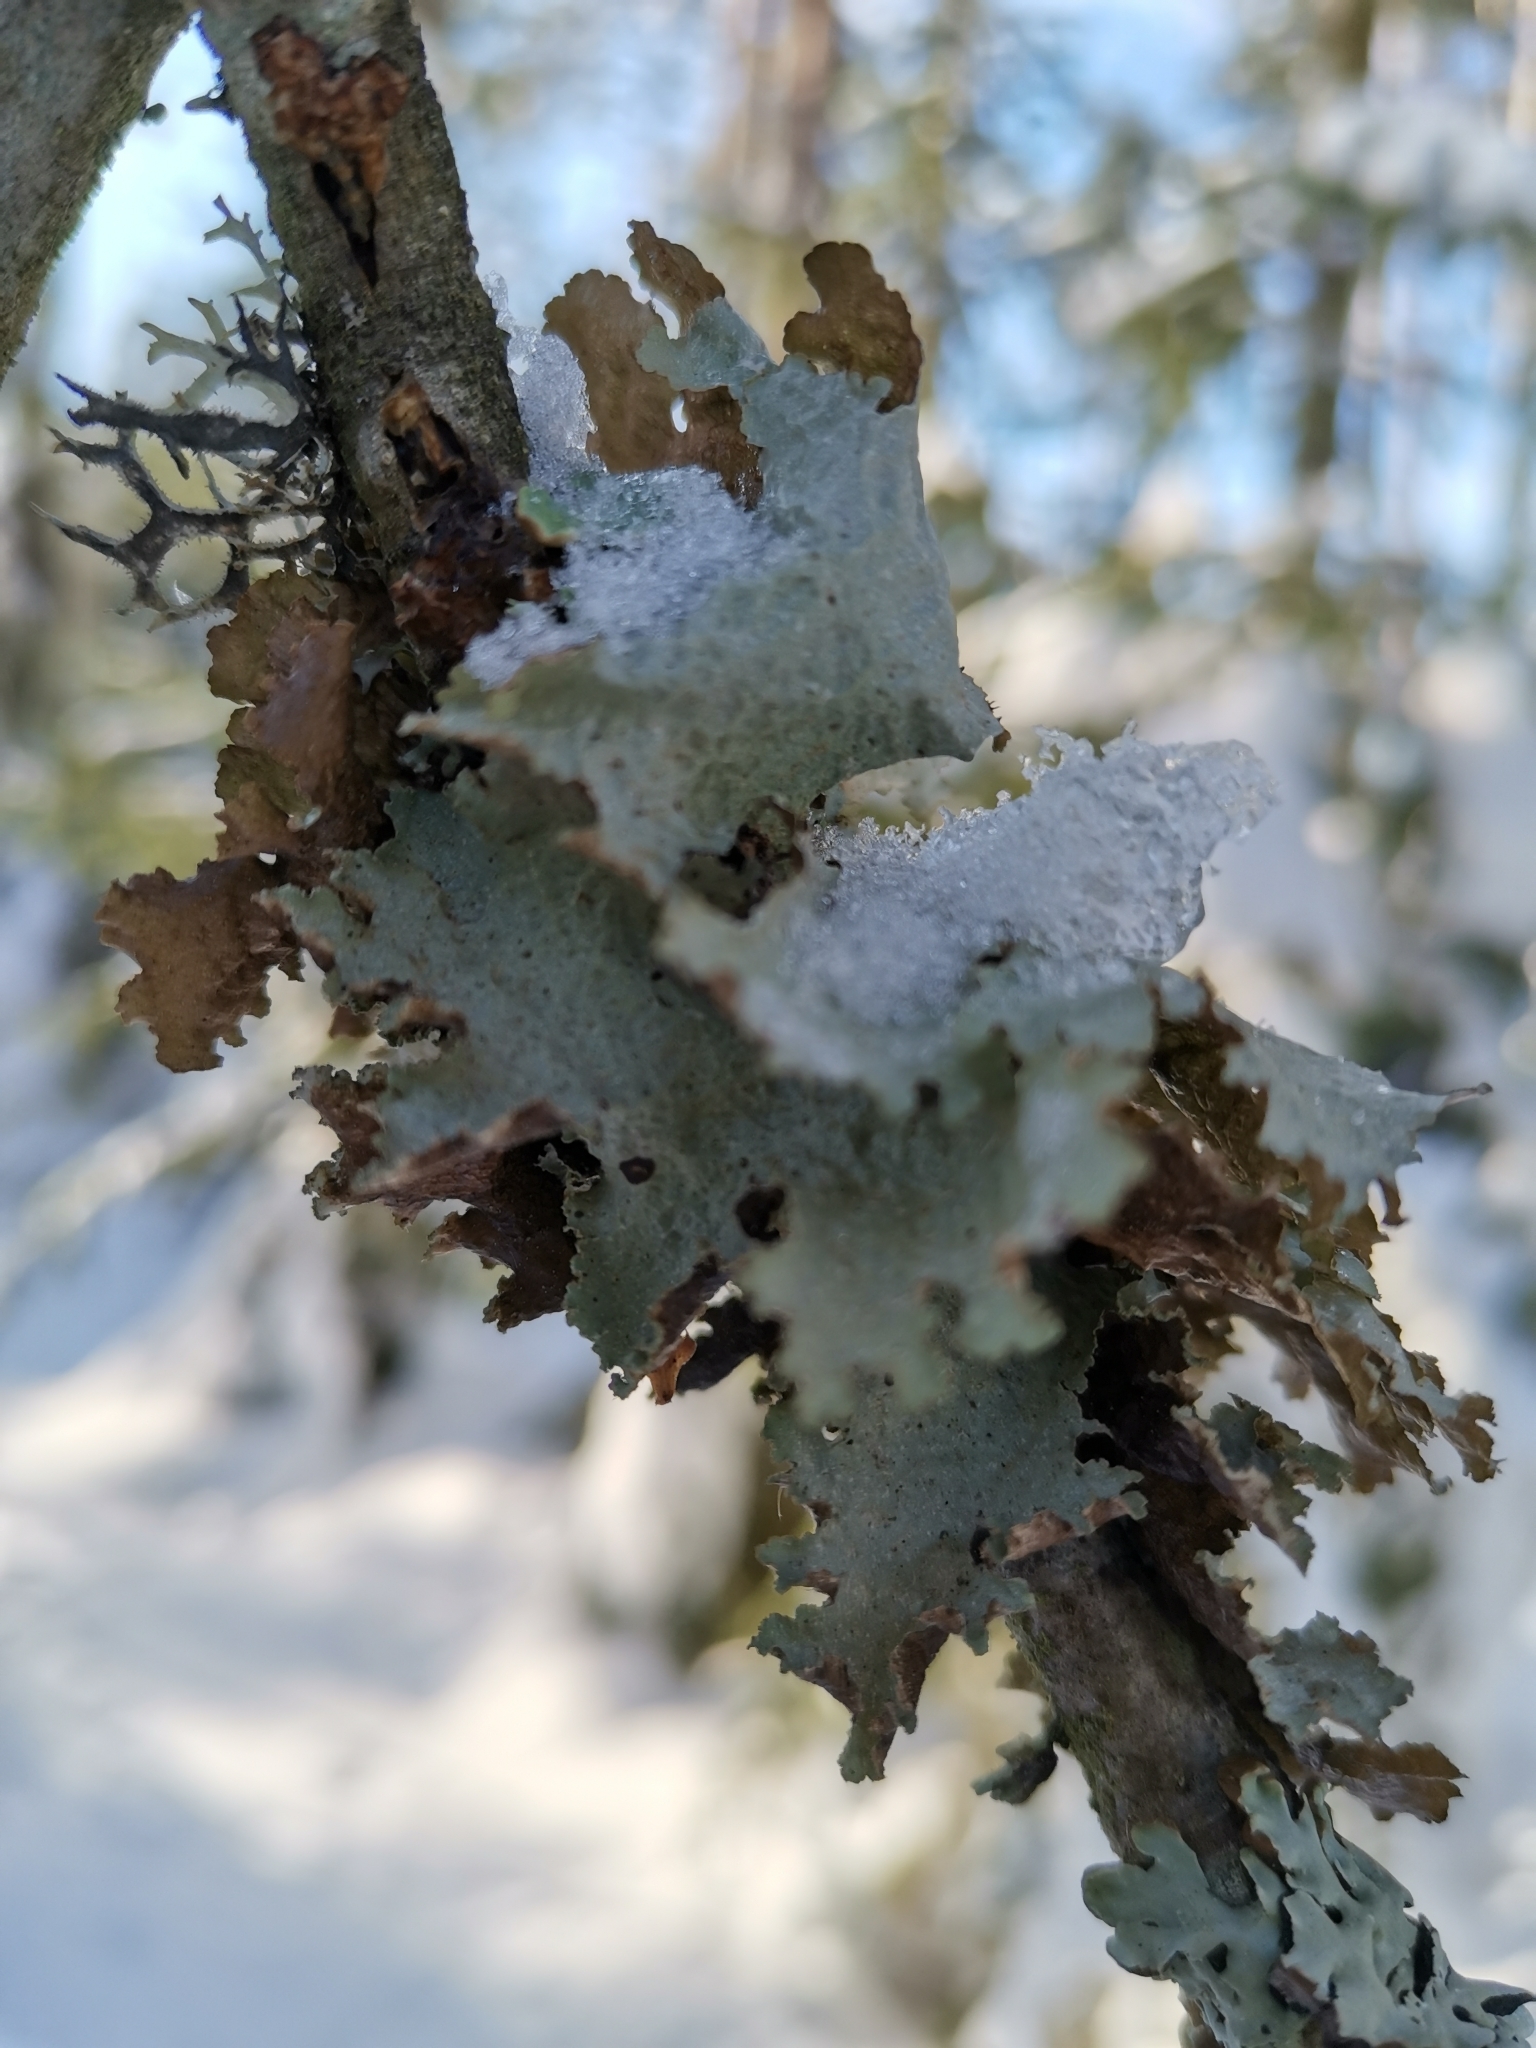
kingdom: Fungi
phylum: Ascomycota
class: Lecanoromycetes
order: Lecanorales
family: Parmeliaceae
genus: Platismatia
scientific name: Platismatia glauca
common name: Varied rag lichen
